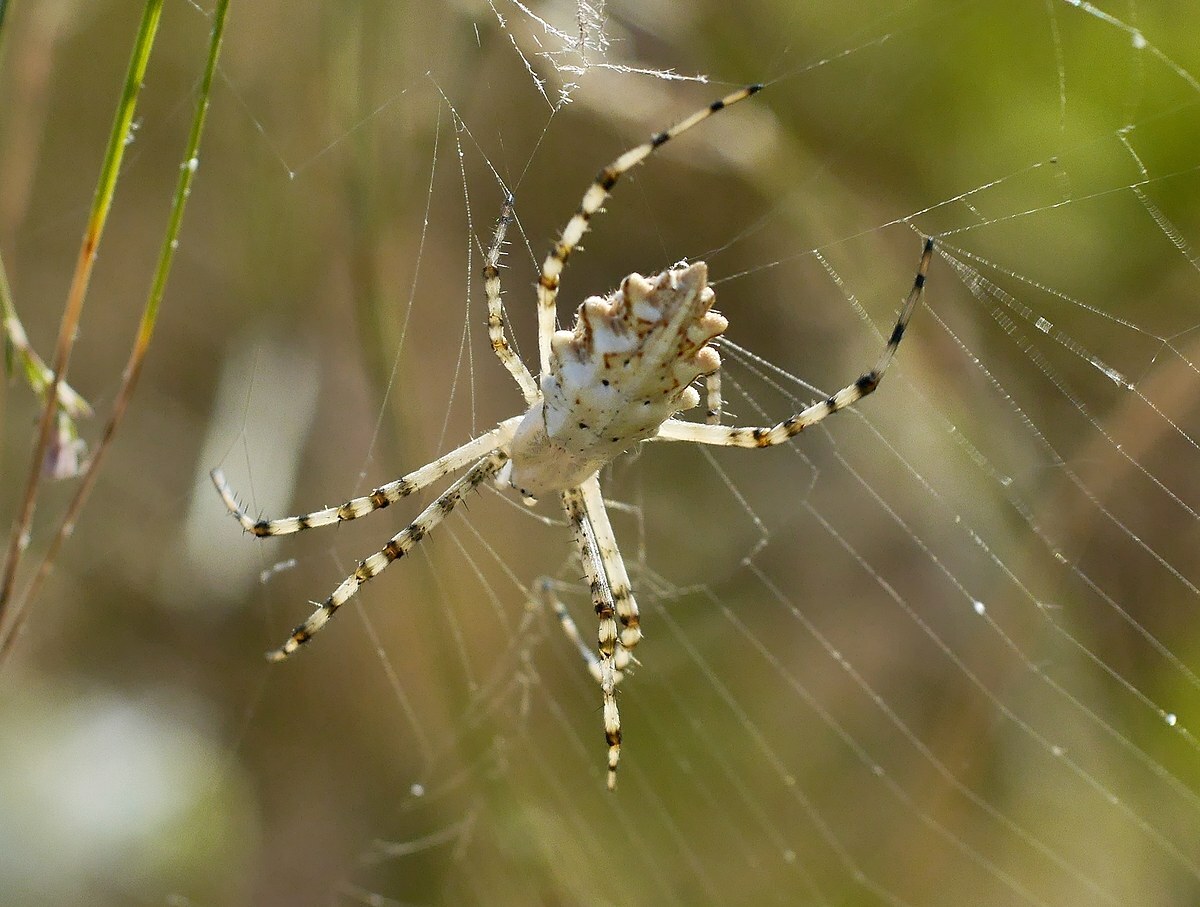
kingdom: Animalia
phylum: Arthropoda
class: Arachnida
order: Araneae
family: Araneidae
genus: Argiope
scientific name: Argiope lobata
